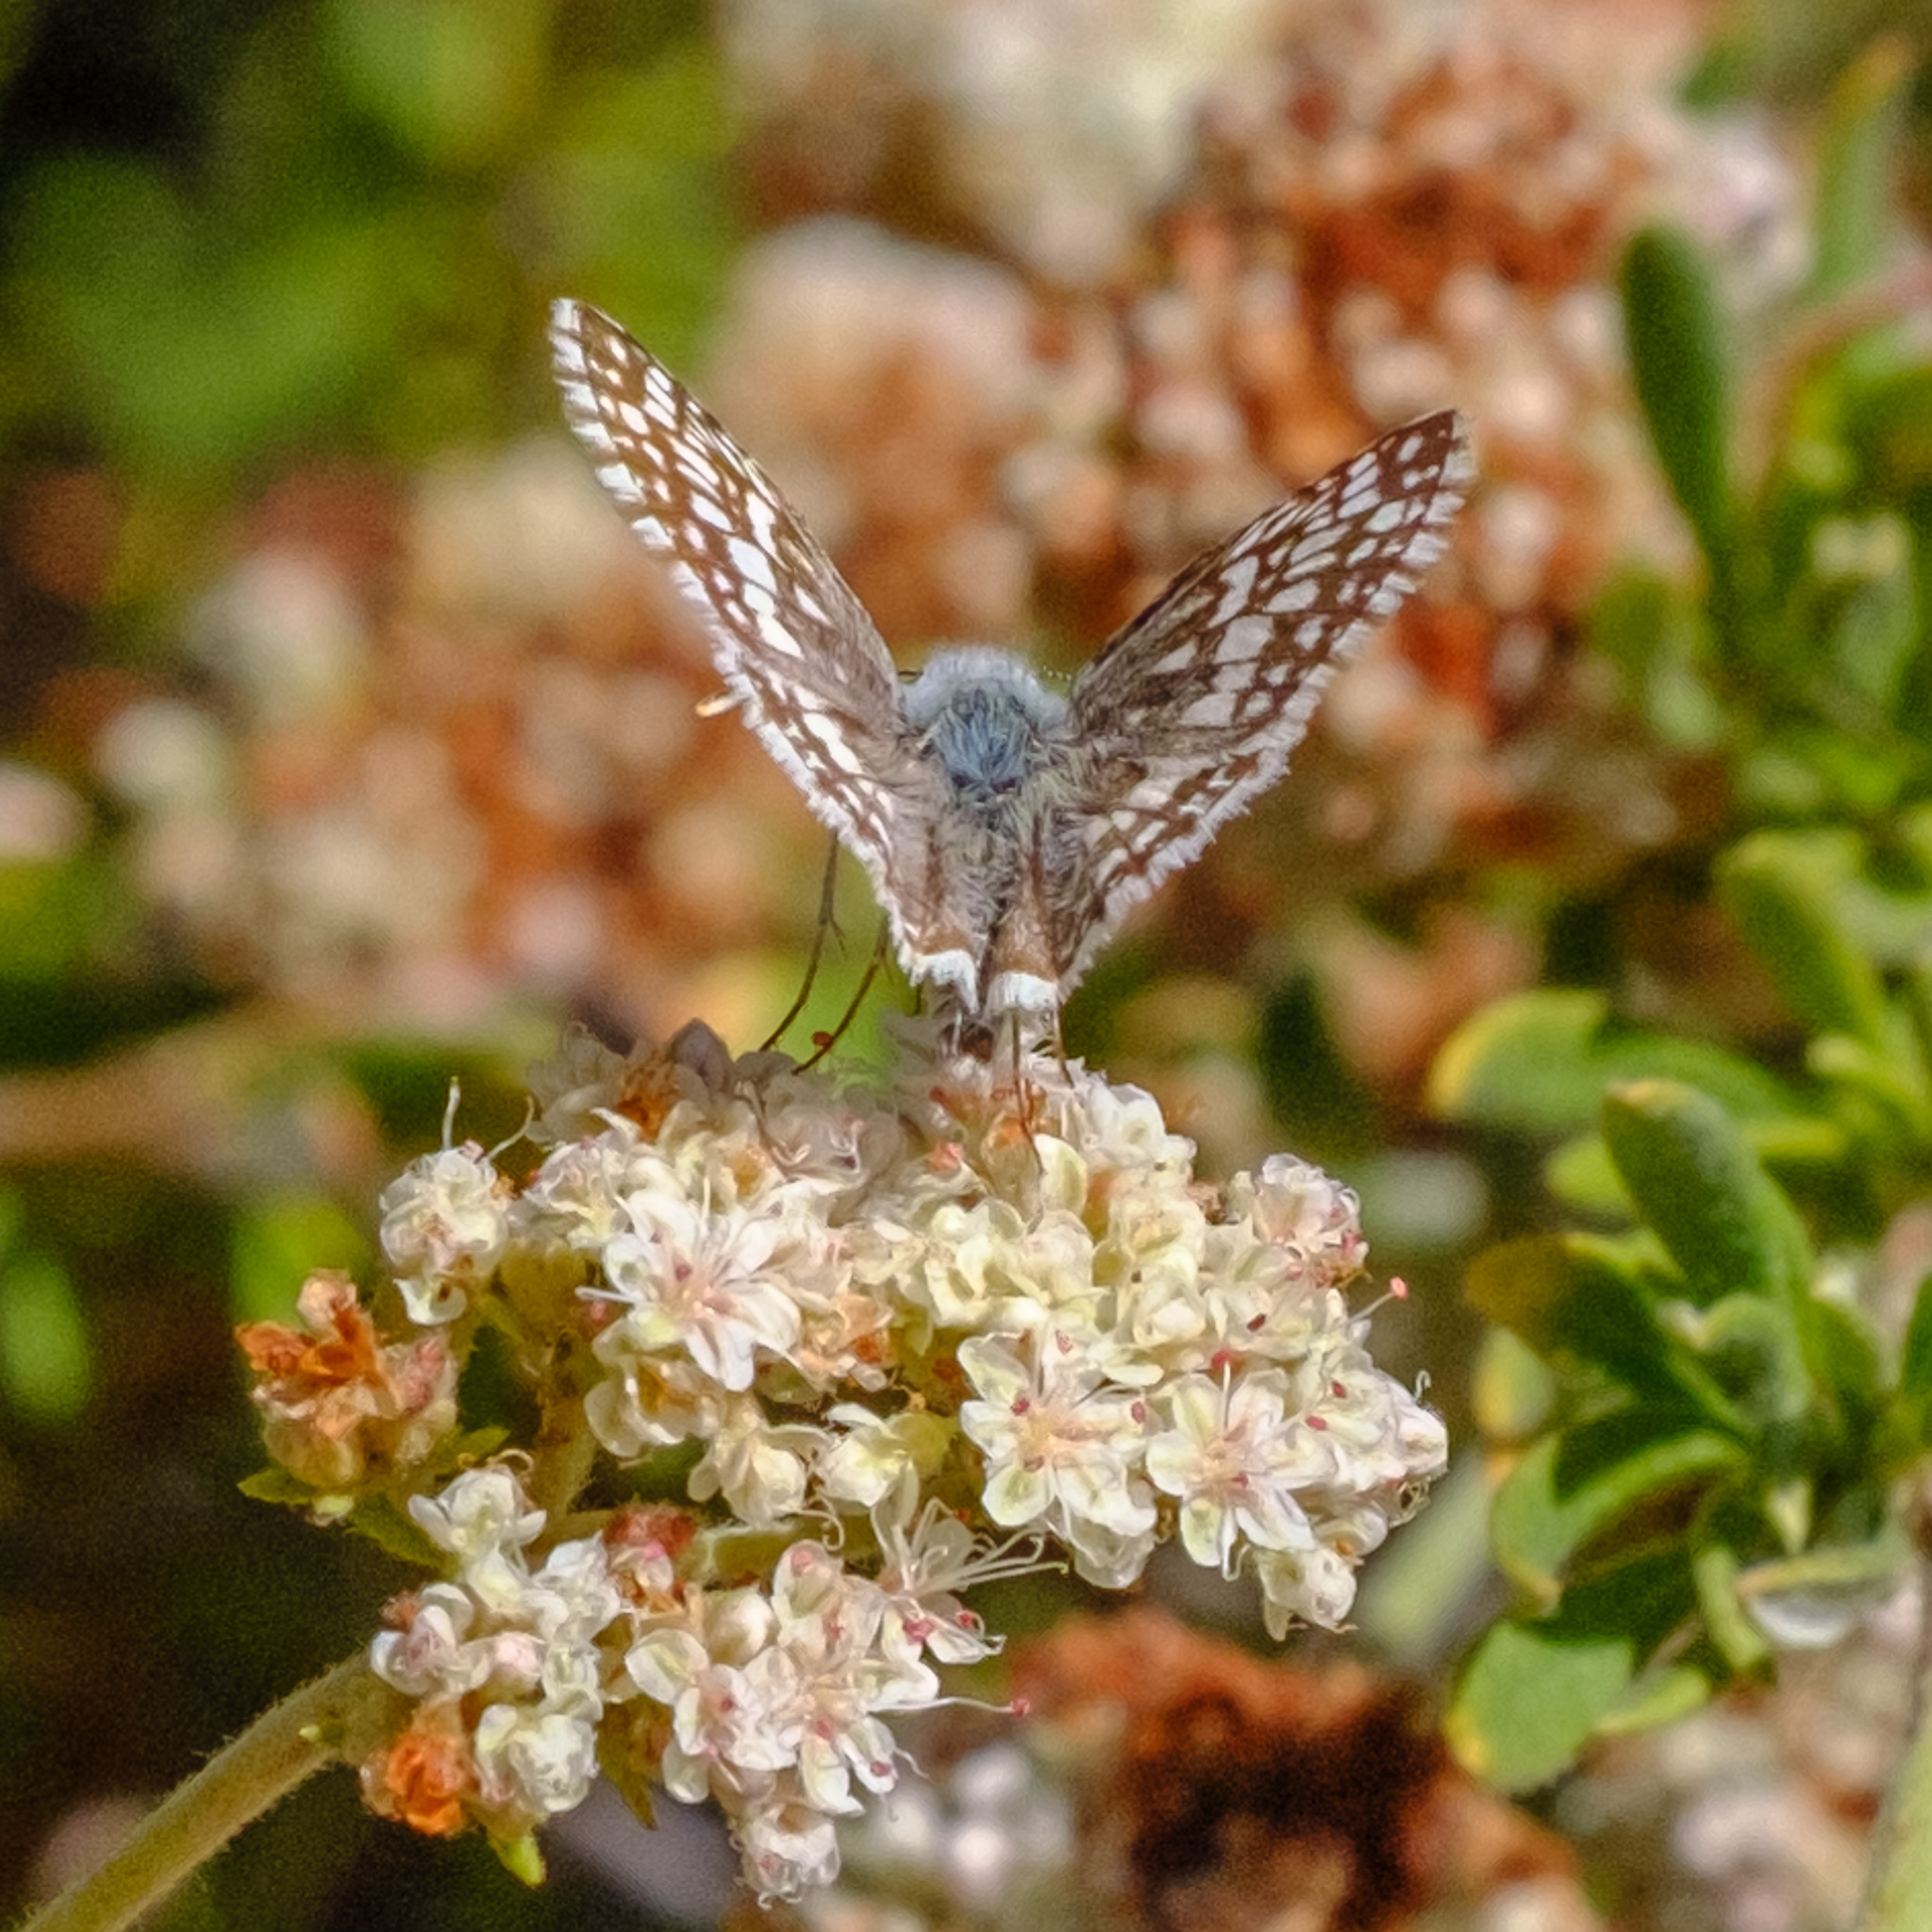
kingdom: Animalia
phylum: Arthropoda
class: Insecta
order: Lepidoptera
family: Hesperiidae
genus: Burnsius
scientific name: Burnsius albezens
